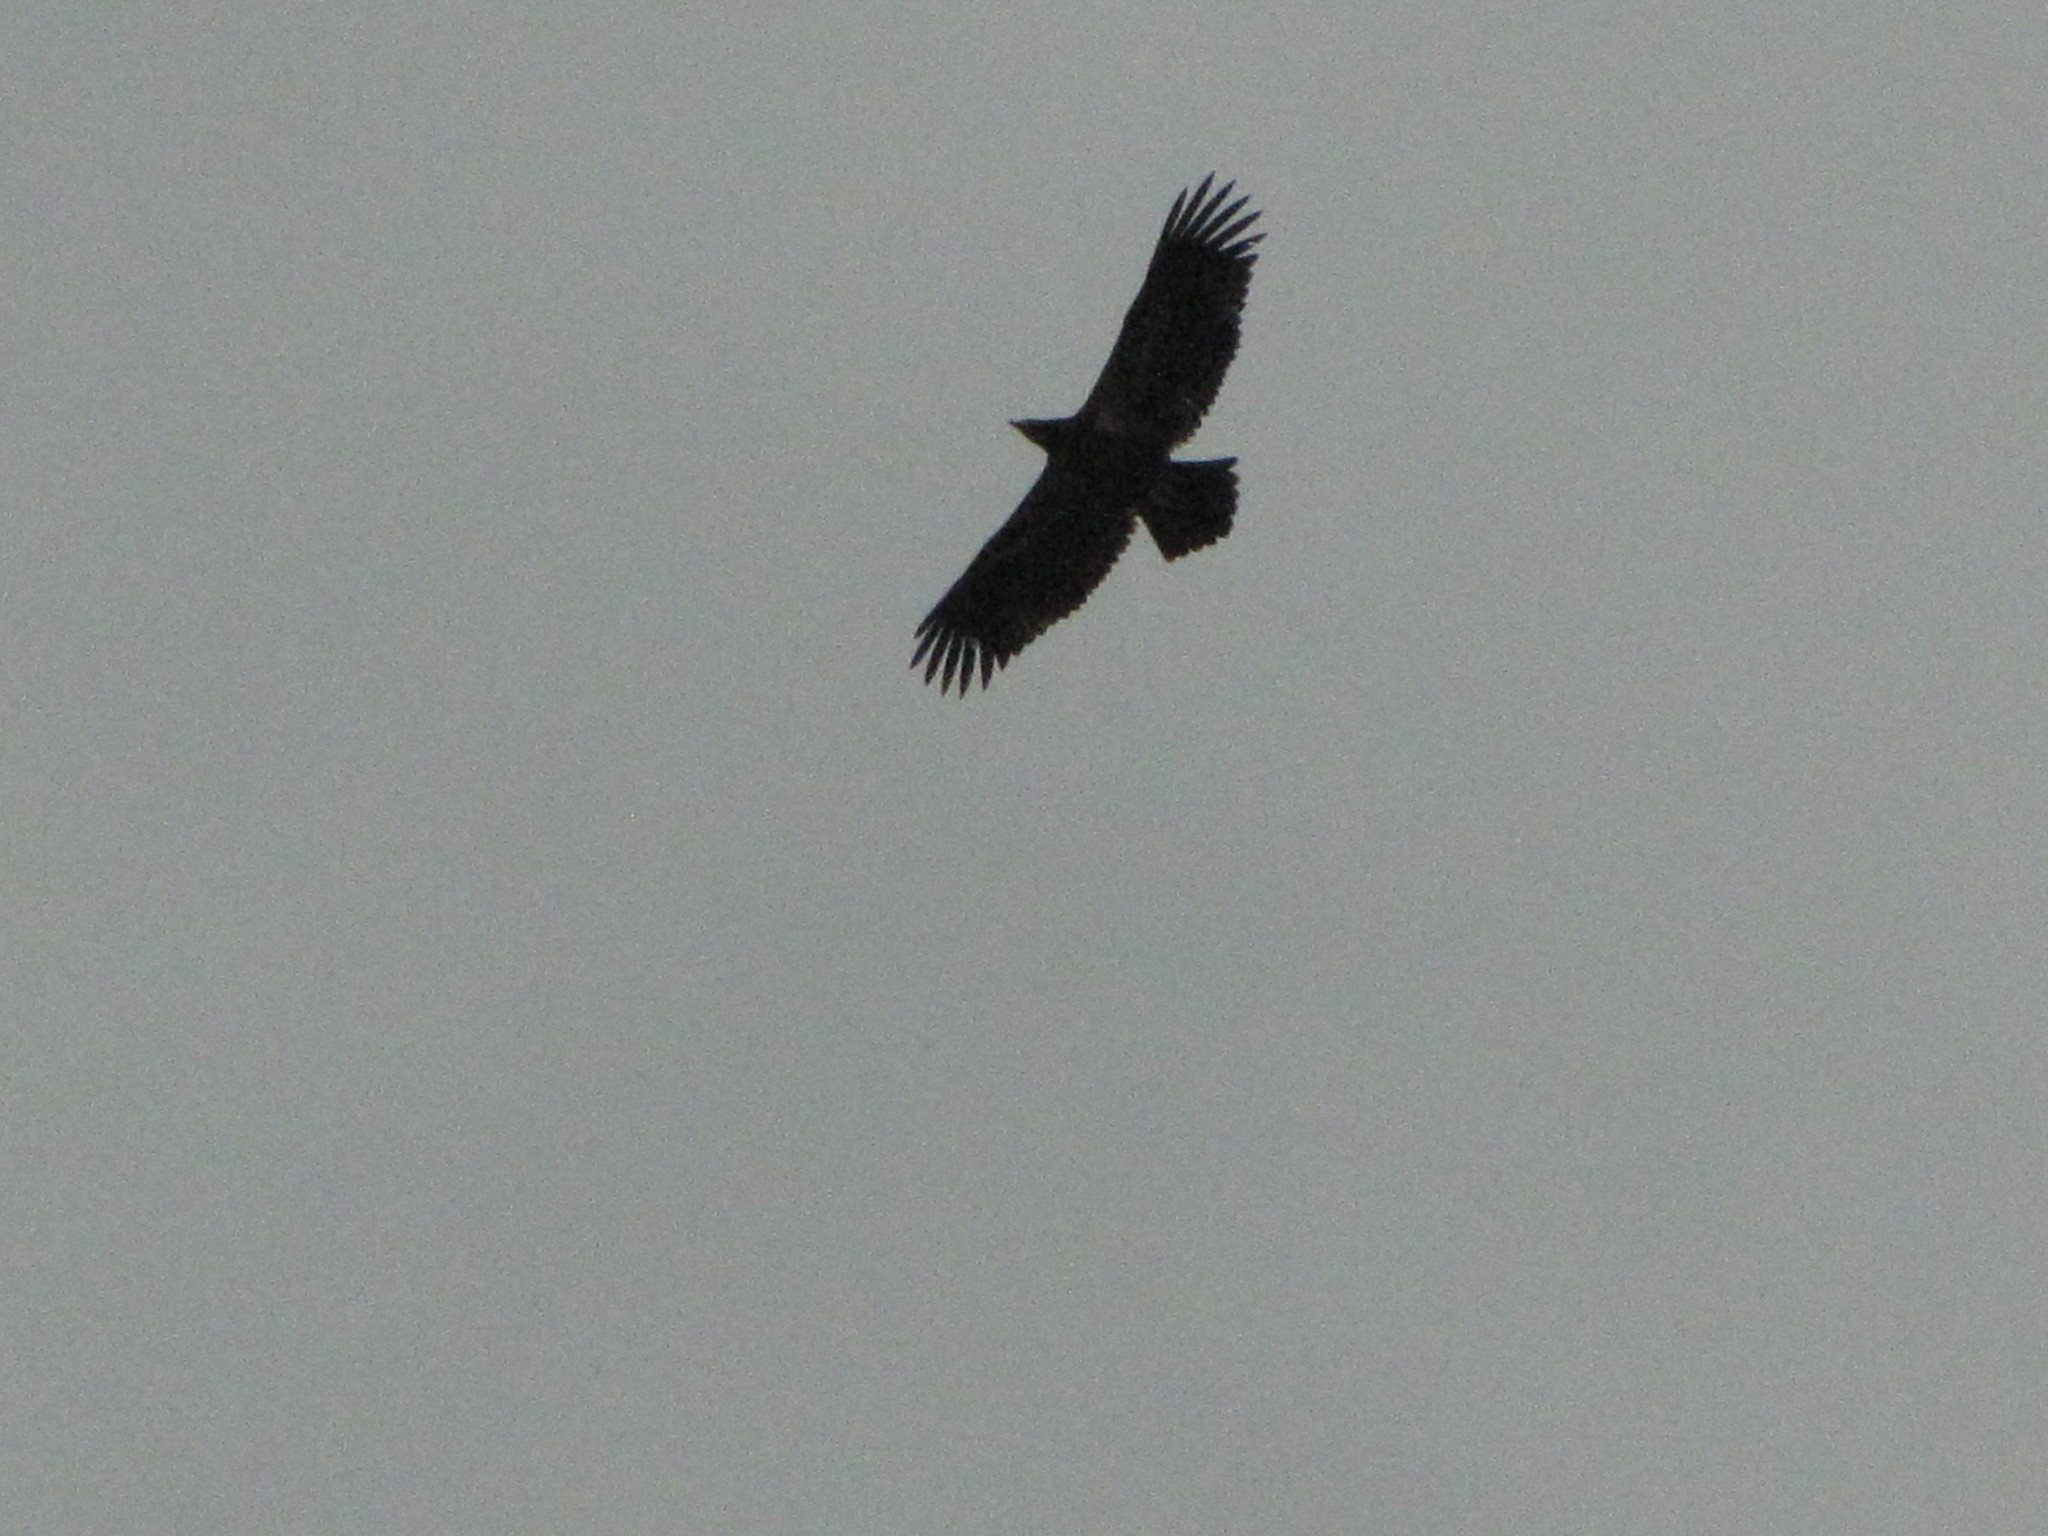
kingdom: Animalia
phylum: Chordata
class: Aves
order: Accipitriformes
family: Accipitridae
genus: Haliaeetus
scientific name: Haliaeetus leucocephalus
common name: Bald eagle
